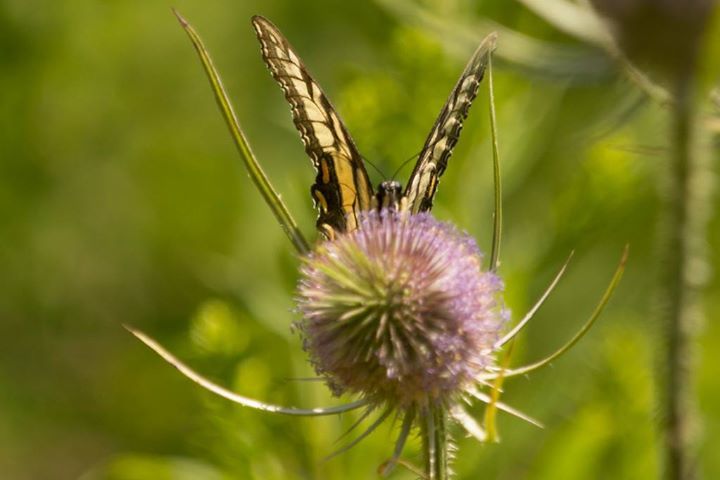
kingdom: Animalia
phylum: Arthropoda
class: Insecta
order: Lepidoptera
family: Papilionidae
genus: Papilio
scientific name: Papilio glaucus
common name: Tiger swallowtail
